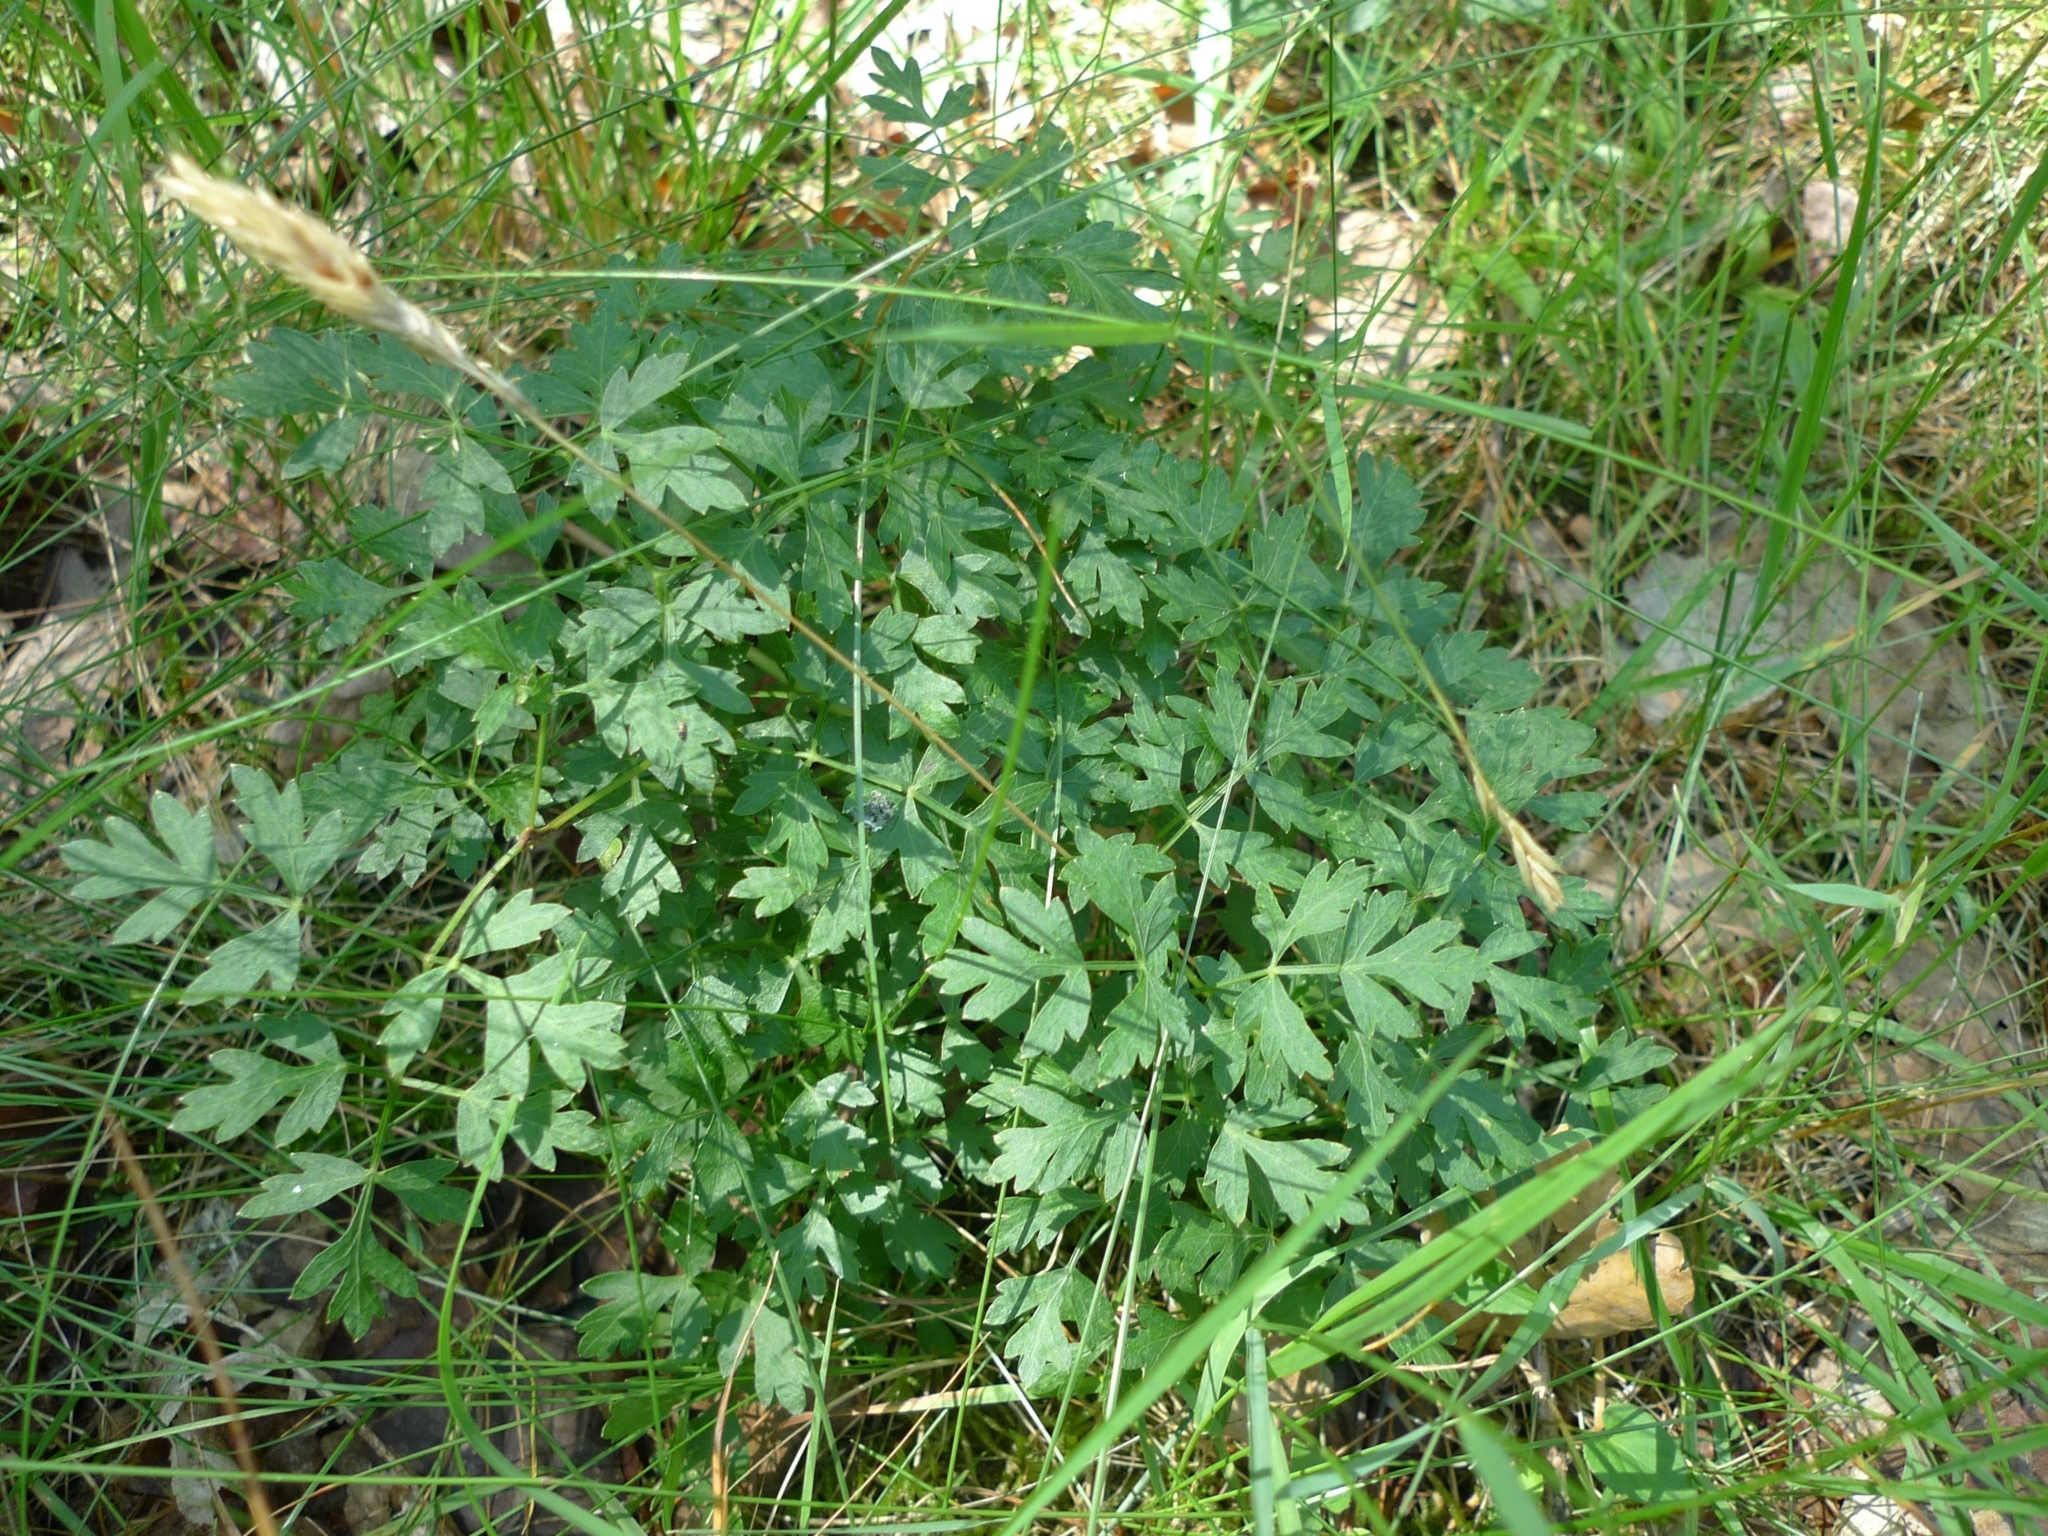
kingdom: Plantae
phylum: Tracheophyta
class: Magnoliopsida
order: Apiales
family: Apiaceae
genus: Oreoselinum
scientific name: Oreoselinum nigrum
